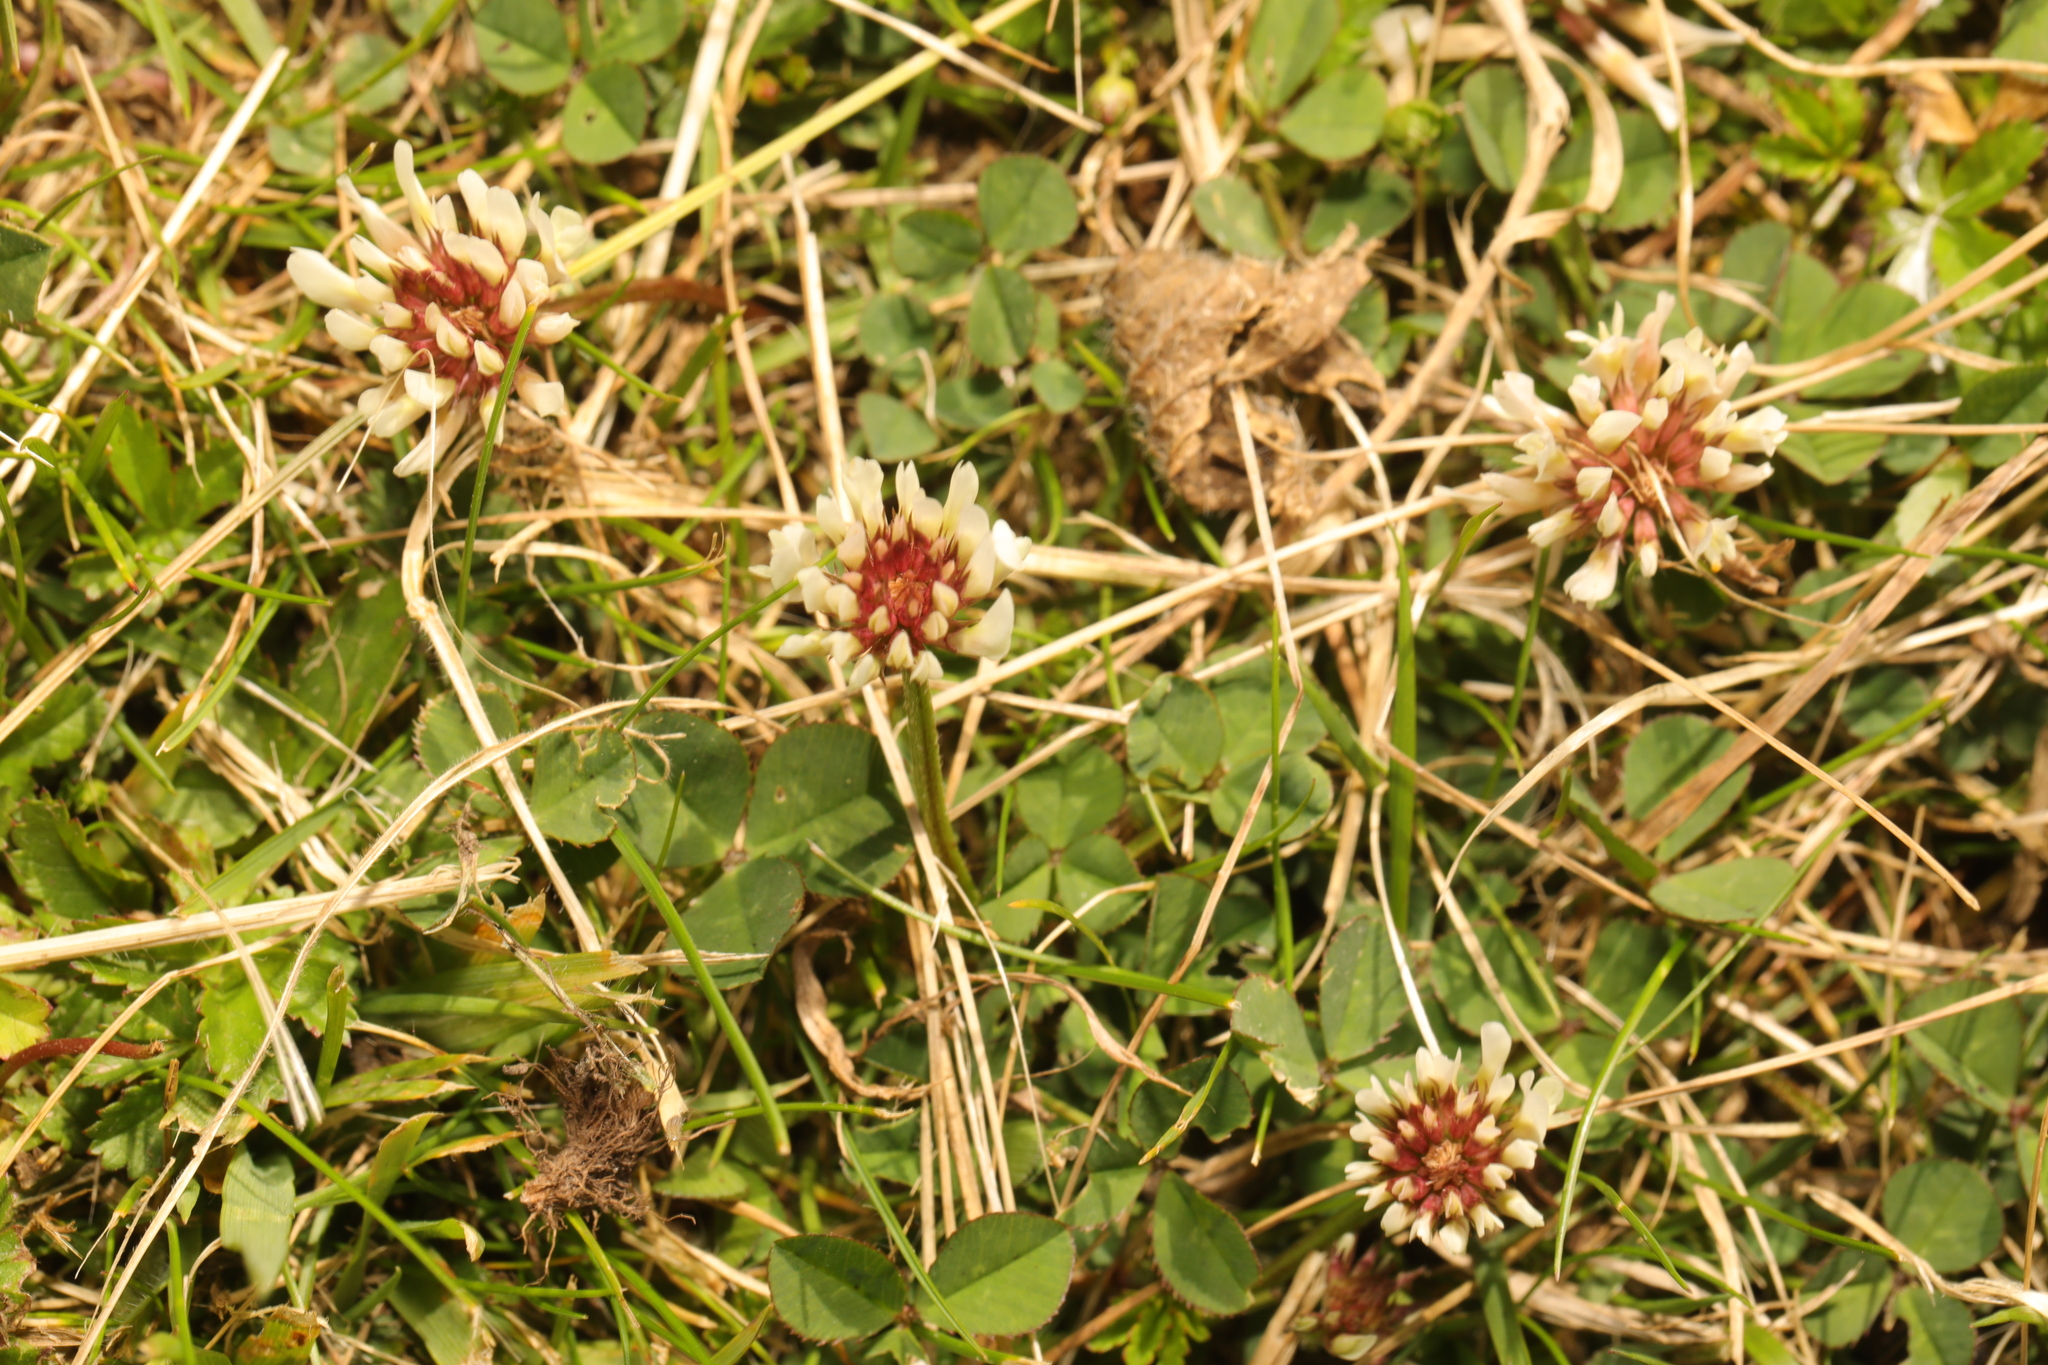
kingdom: Plantae
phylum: Tracheophyta
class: Magnoliopsida
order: Fabales
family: Fabaceae
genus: Trifolium
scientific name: Trifolium repens
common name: White clover
